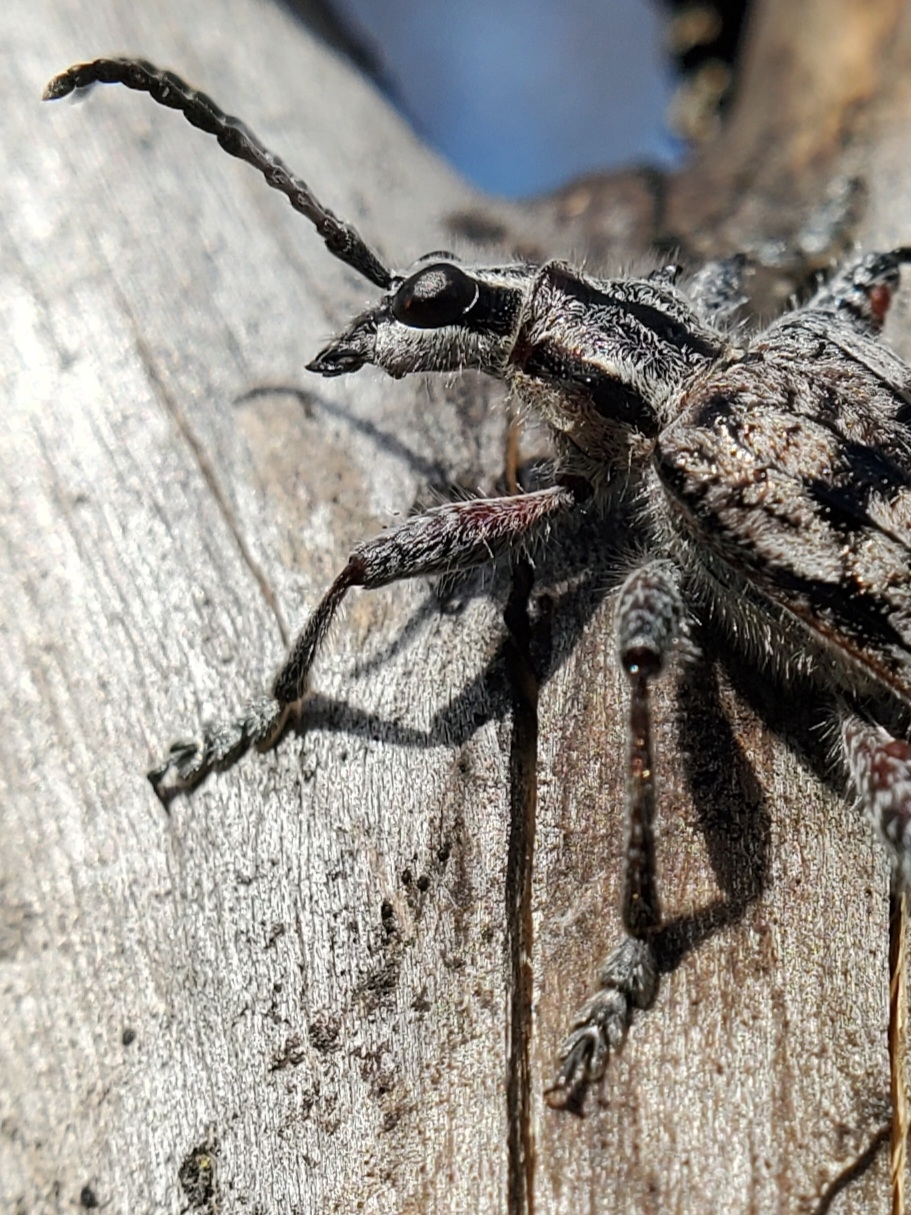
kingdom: Animalia
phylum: Arthropoda
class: Insecta
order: Coleoptera
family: Cerambycidae
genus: Rhagium
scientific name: Rhagium inquisitor
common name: Ribbed pine borer
